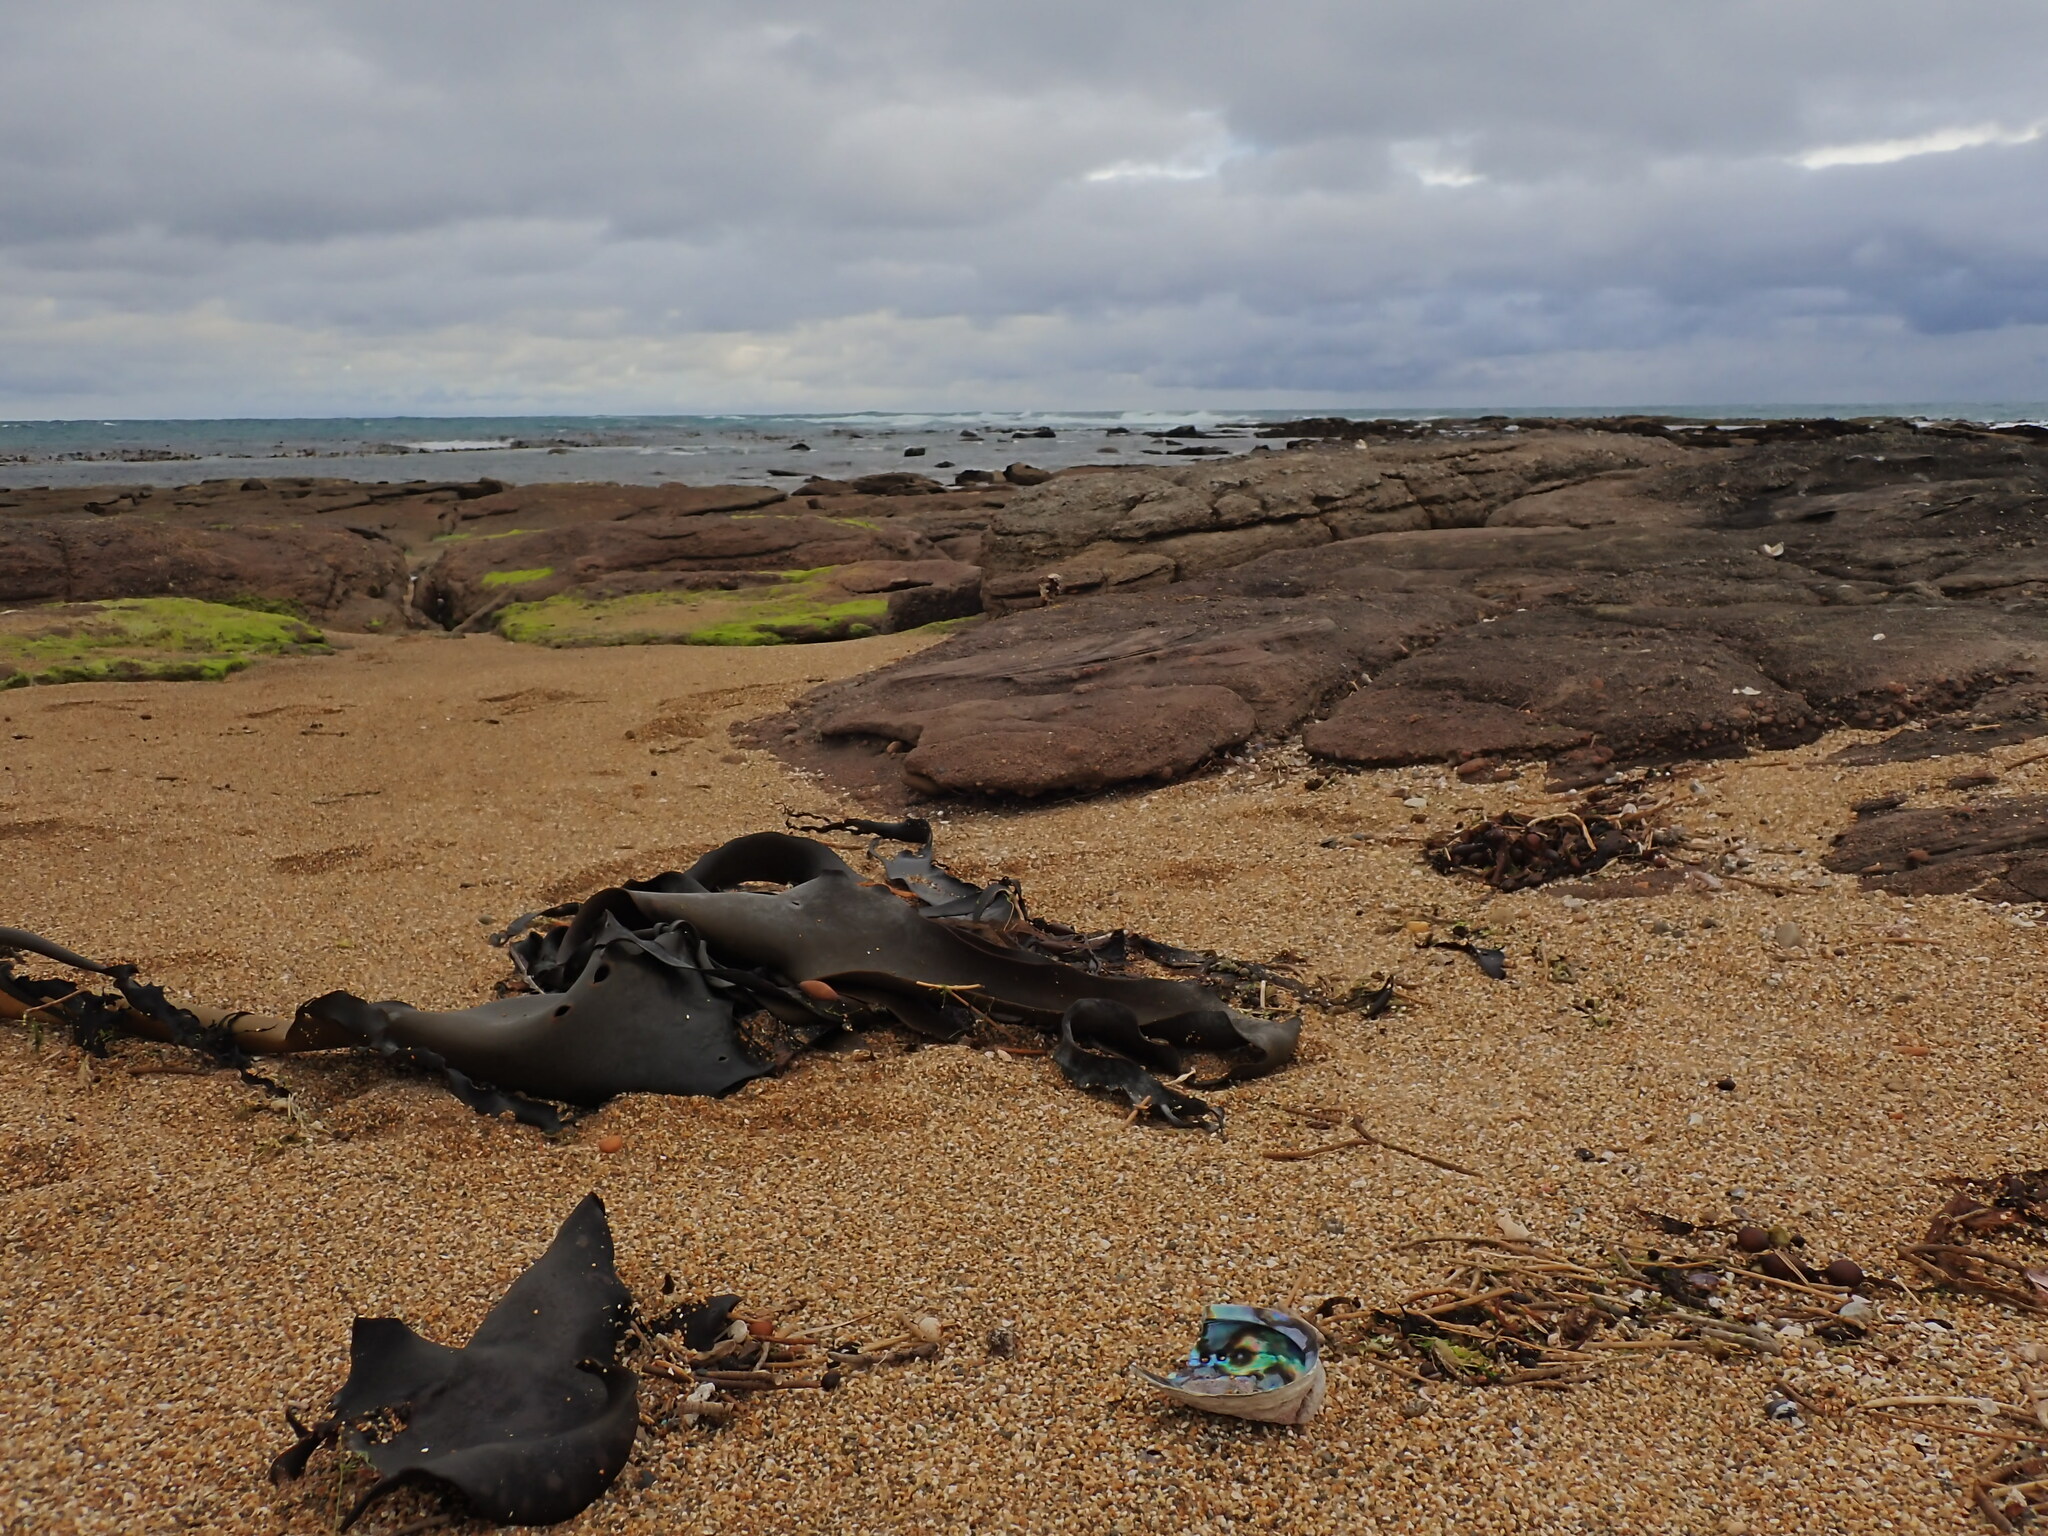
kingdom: Animalia
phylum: Mollusca
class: Gastropoda
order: Lepetellida
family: Haliotidae
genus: Haliotis
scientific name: Haliotis iris
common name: Abalone
